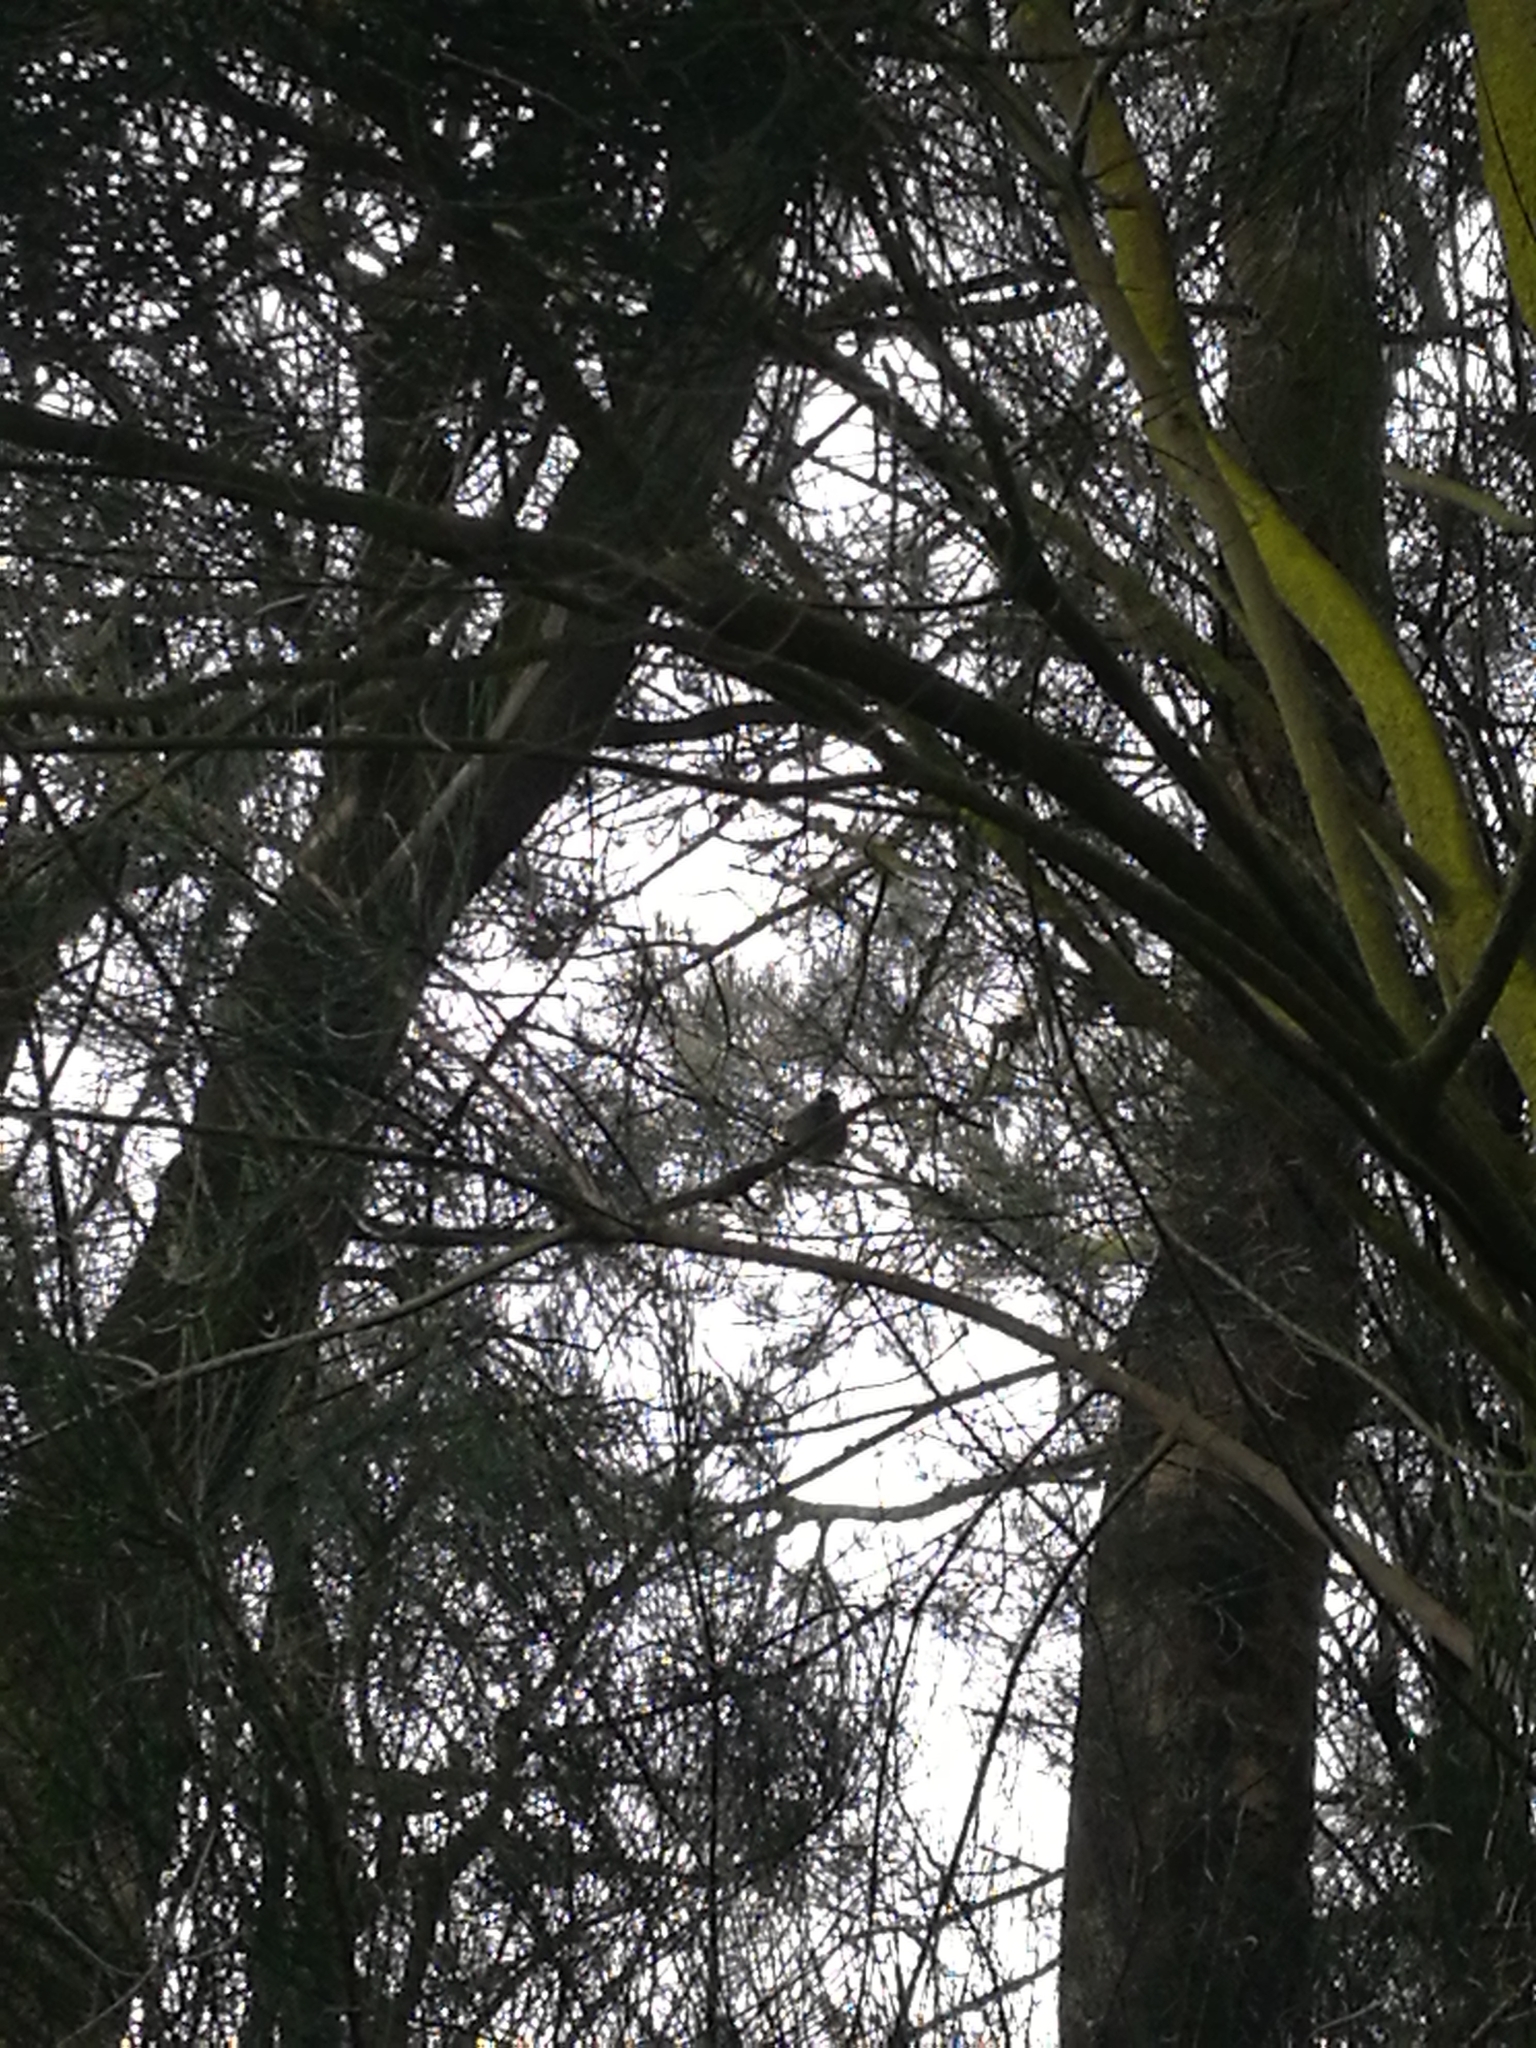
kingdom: Animalia
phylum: Chordata
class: Aves
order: Passeriformes
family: Passeridae
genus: Passer
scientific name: Passer domesticus
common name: House sparrow
